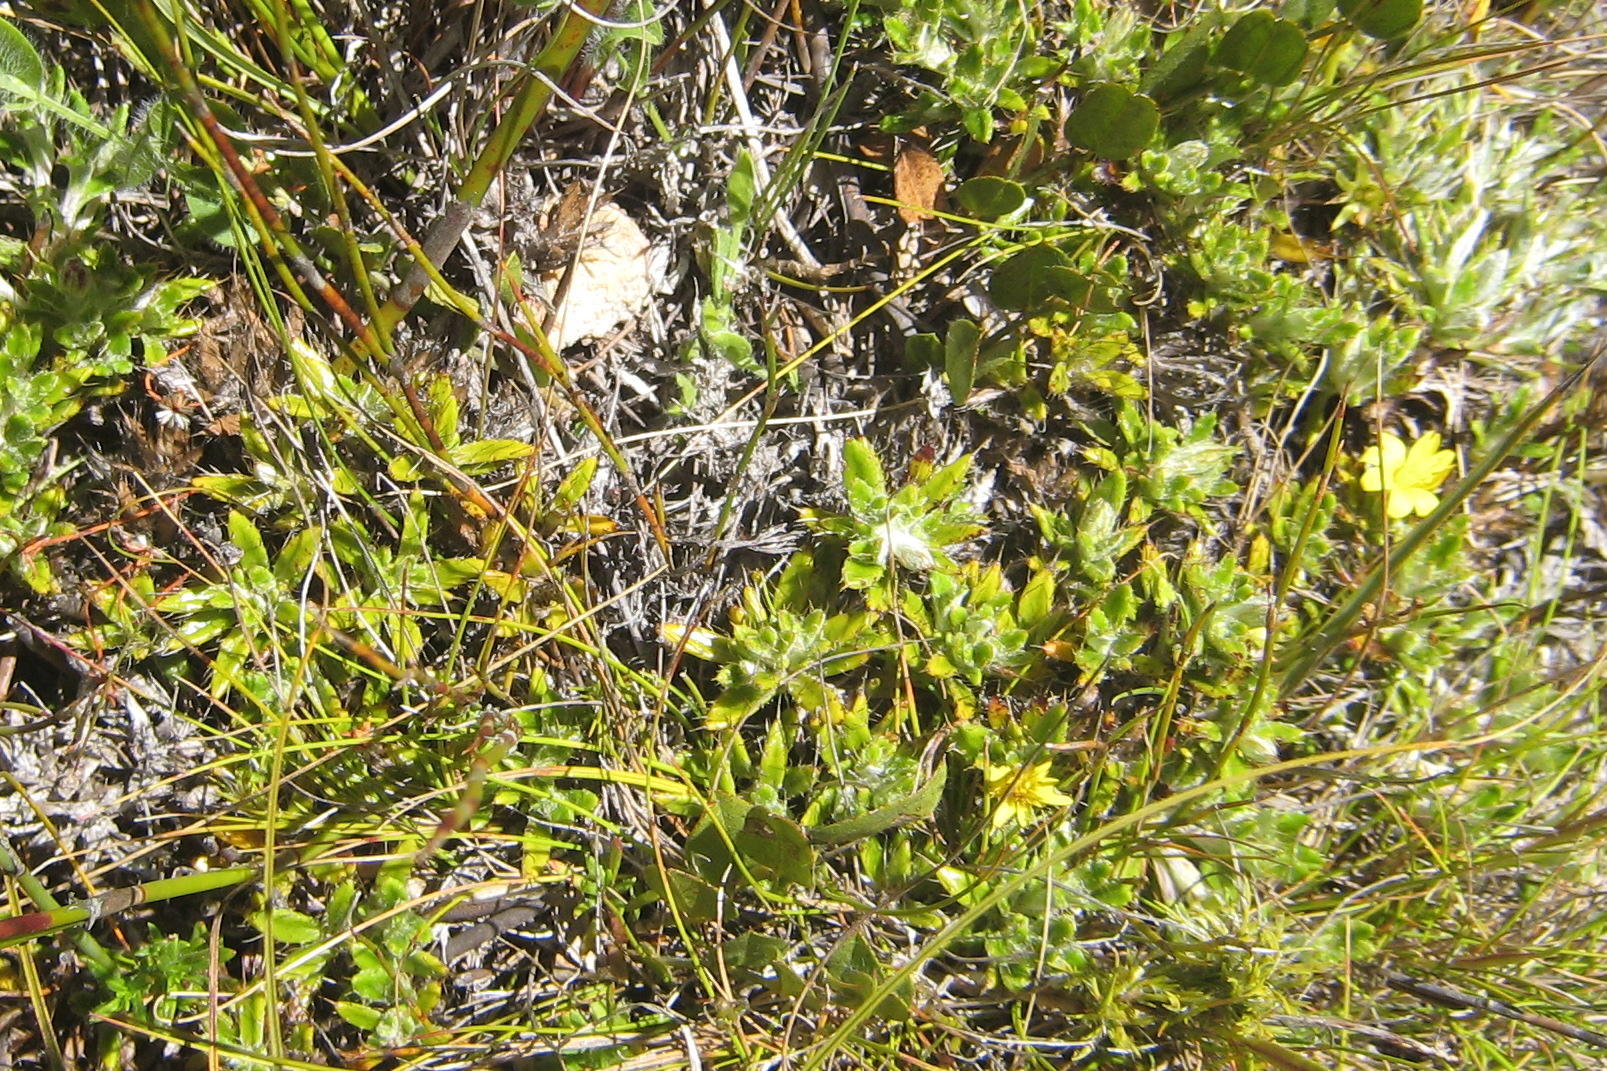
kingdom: Plantae
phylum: Tracheophyta
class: Magnoliopsida
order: Asterales
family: Asteraceae
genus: Cullumia
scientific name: Cullumia aculeata
